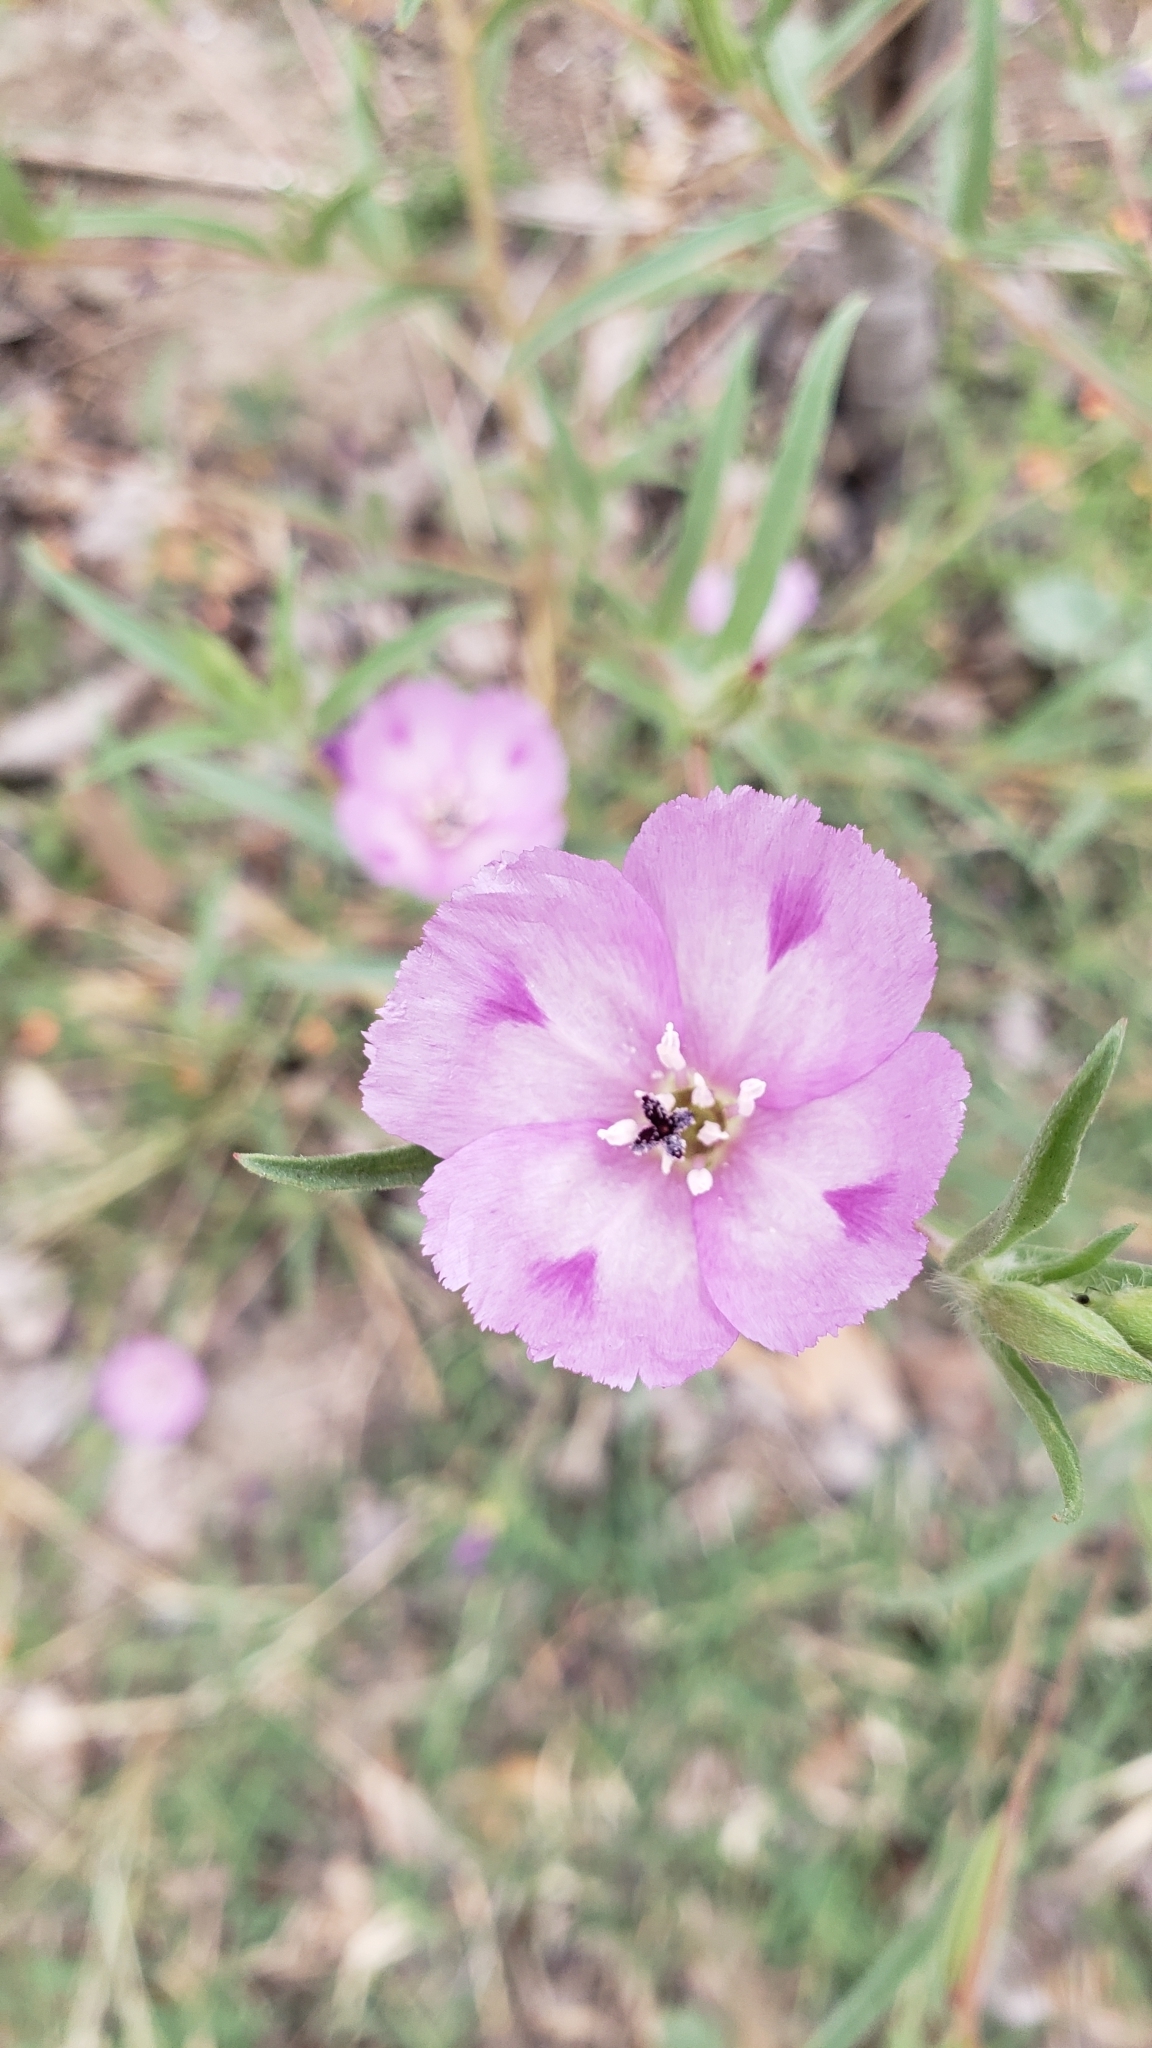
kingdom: Plantae
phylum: Tracheophyta
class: Magnoliopsida
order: Myrtales
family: Onagraceae
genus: Clarkia
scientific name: Clarkia purpurea
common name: Purple clarkia
